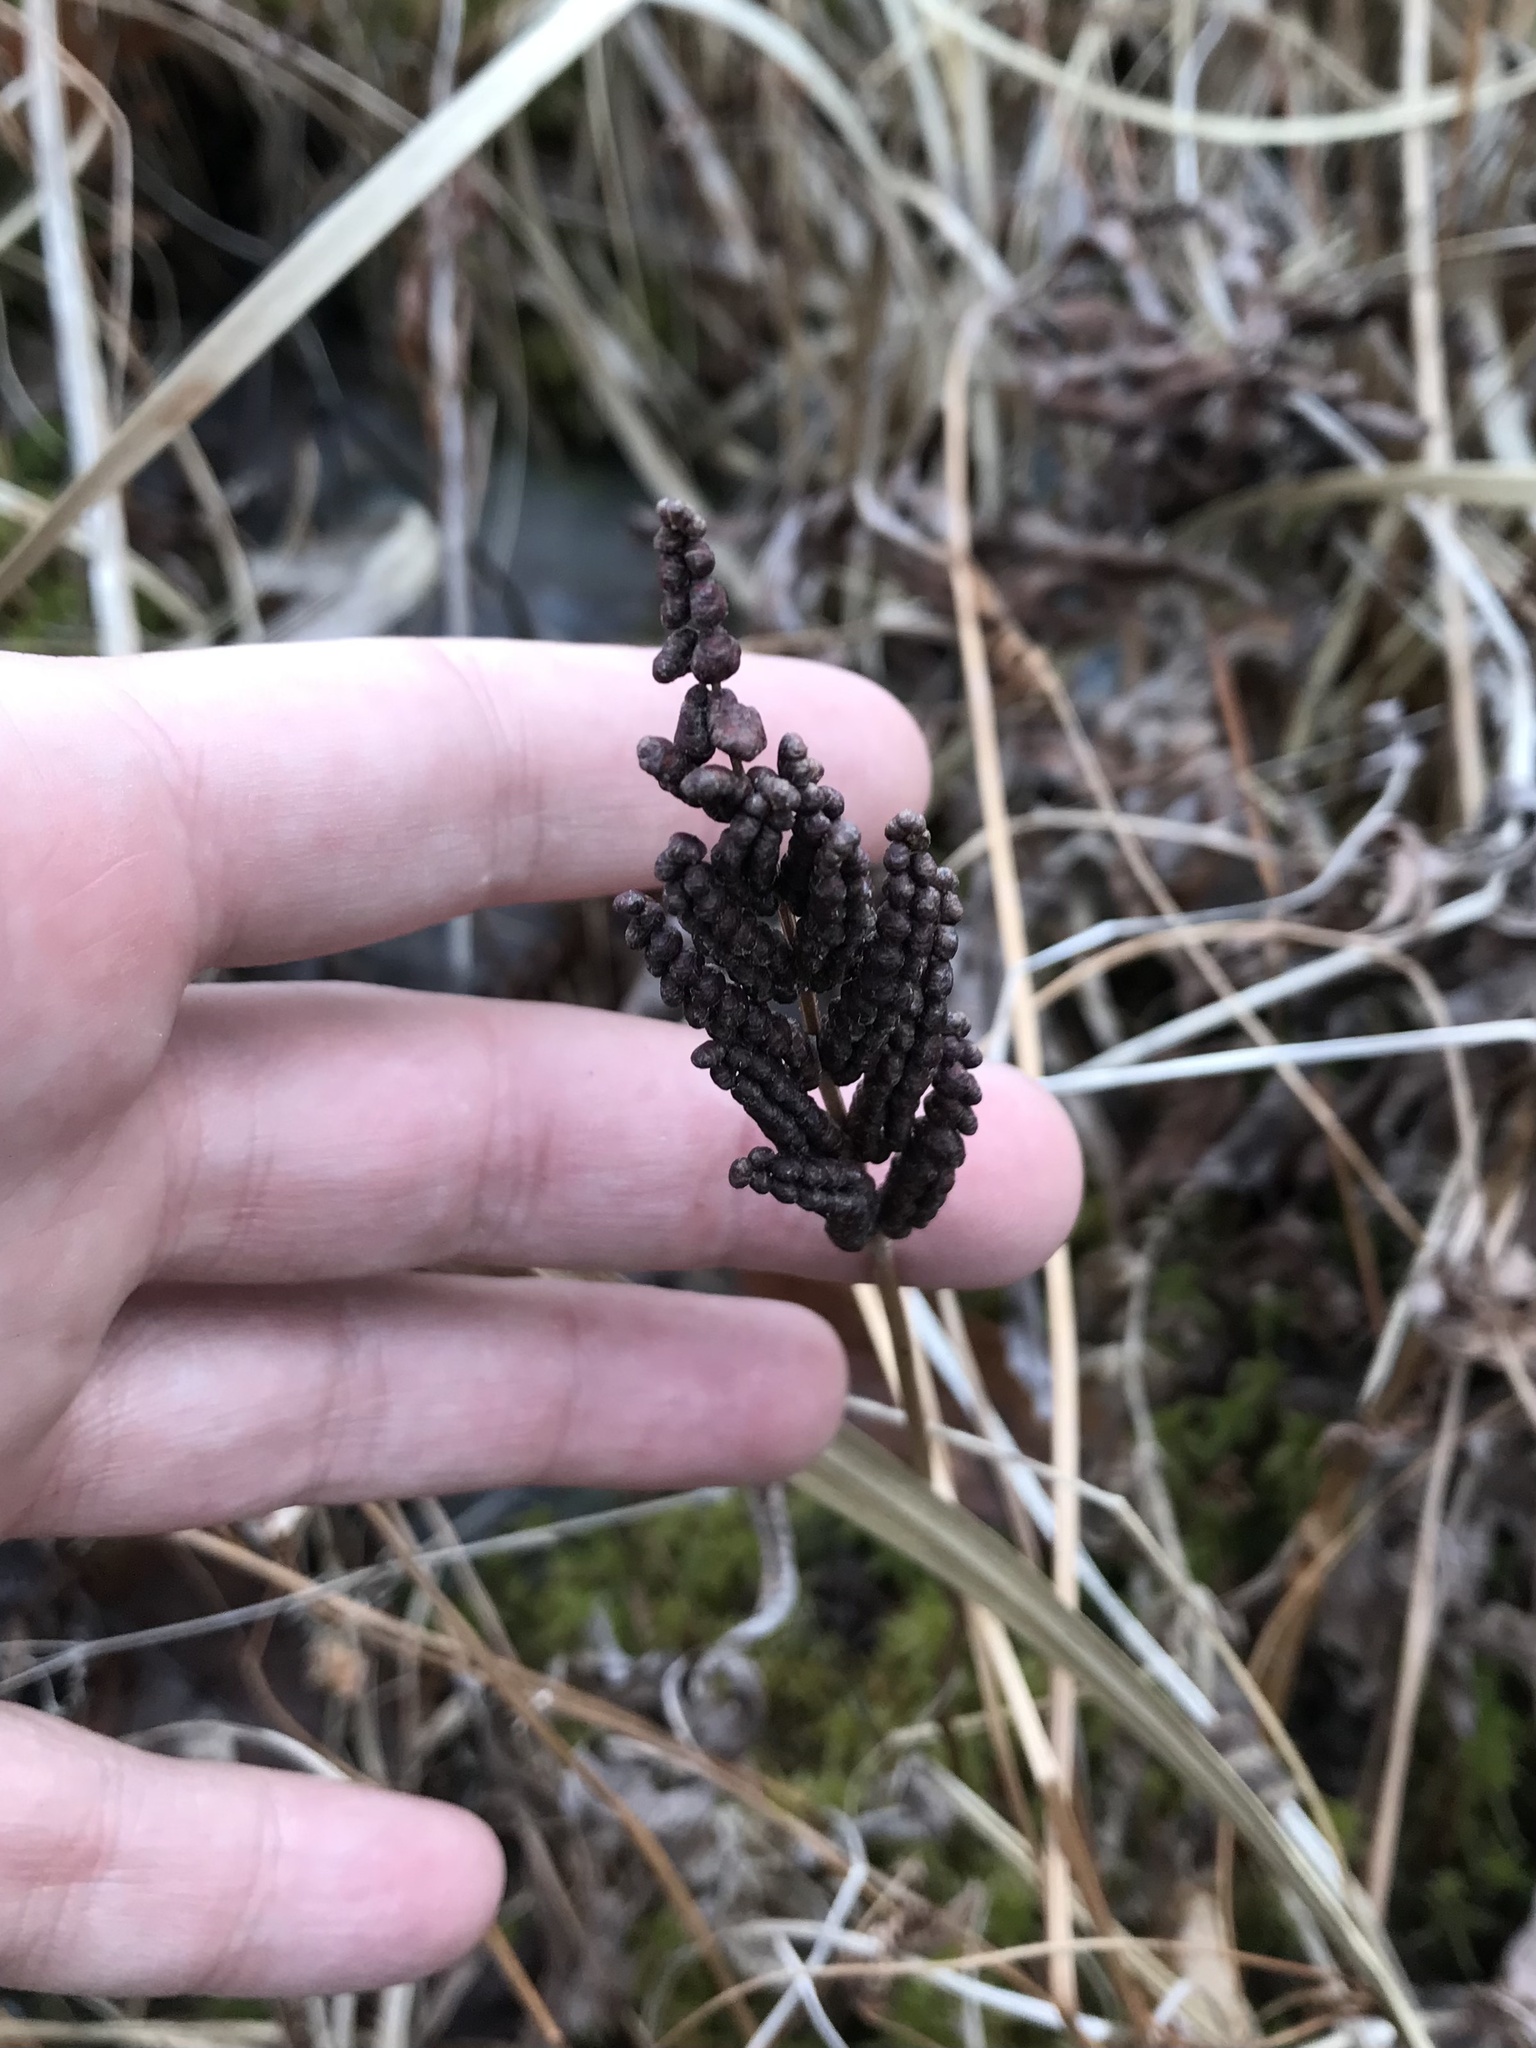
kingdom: Plantae
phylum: Tracheophyta
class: Polypodiopsida
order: Polypodiales
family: Onocleaceae
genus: Onoclea
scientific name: Onoclea sensibilis
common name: Sensitive fern
